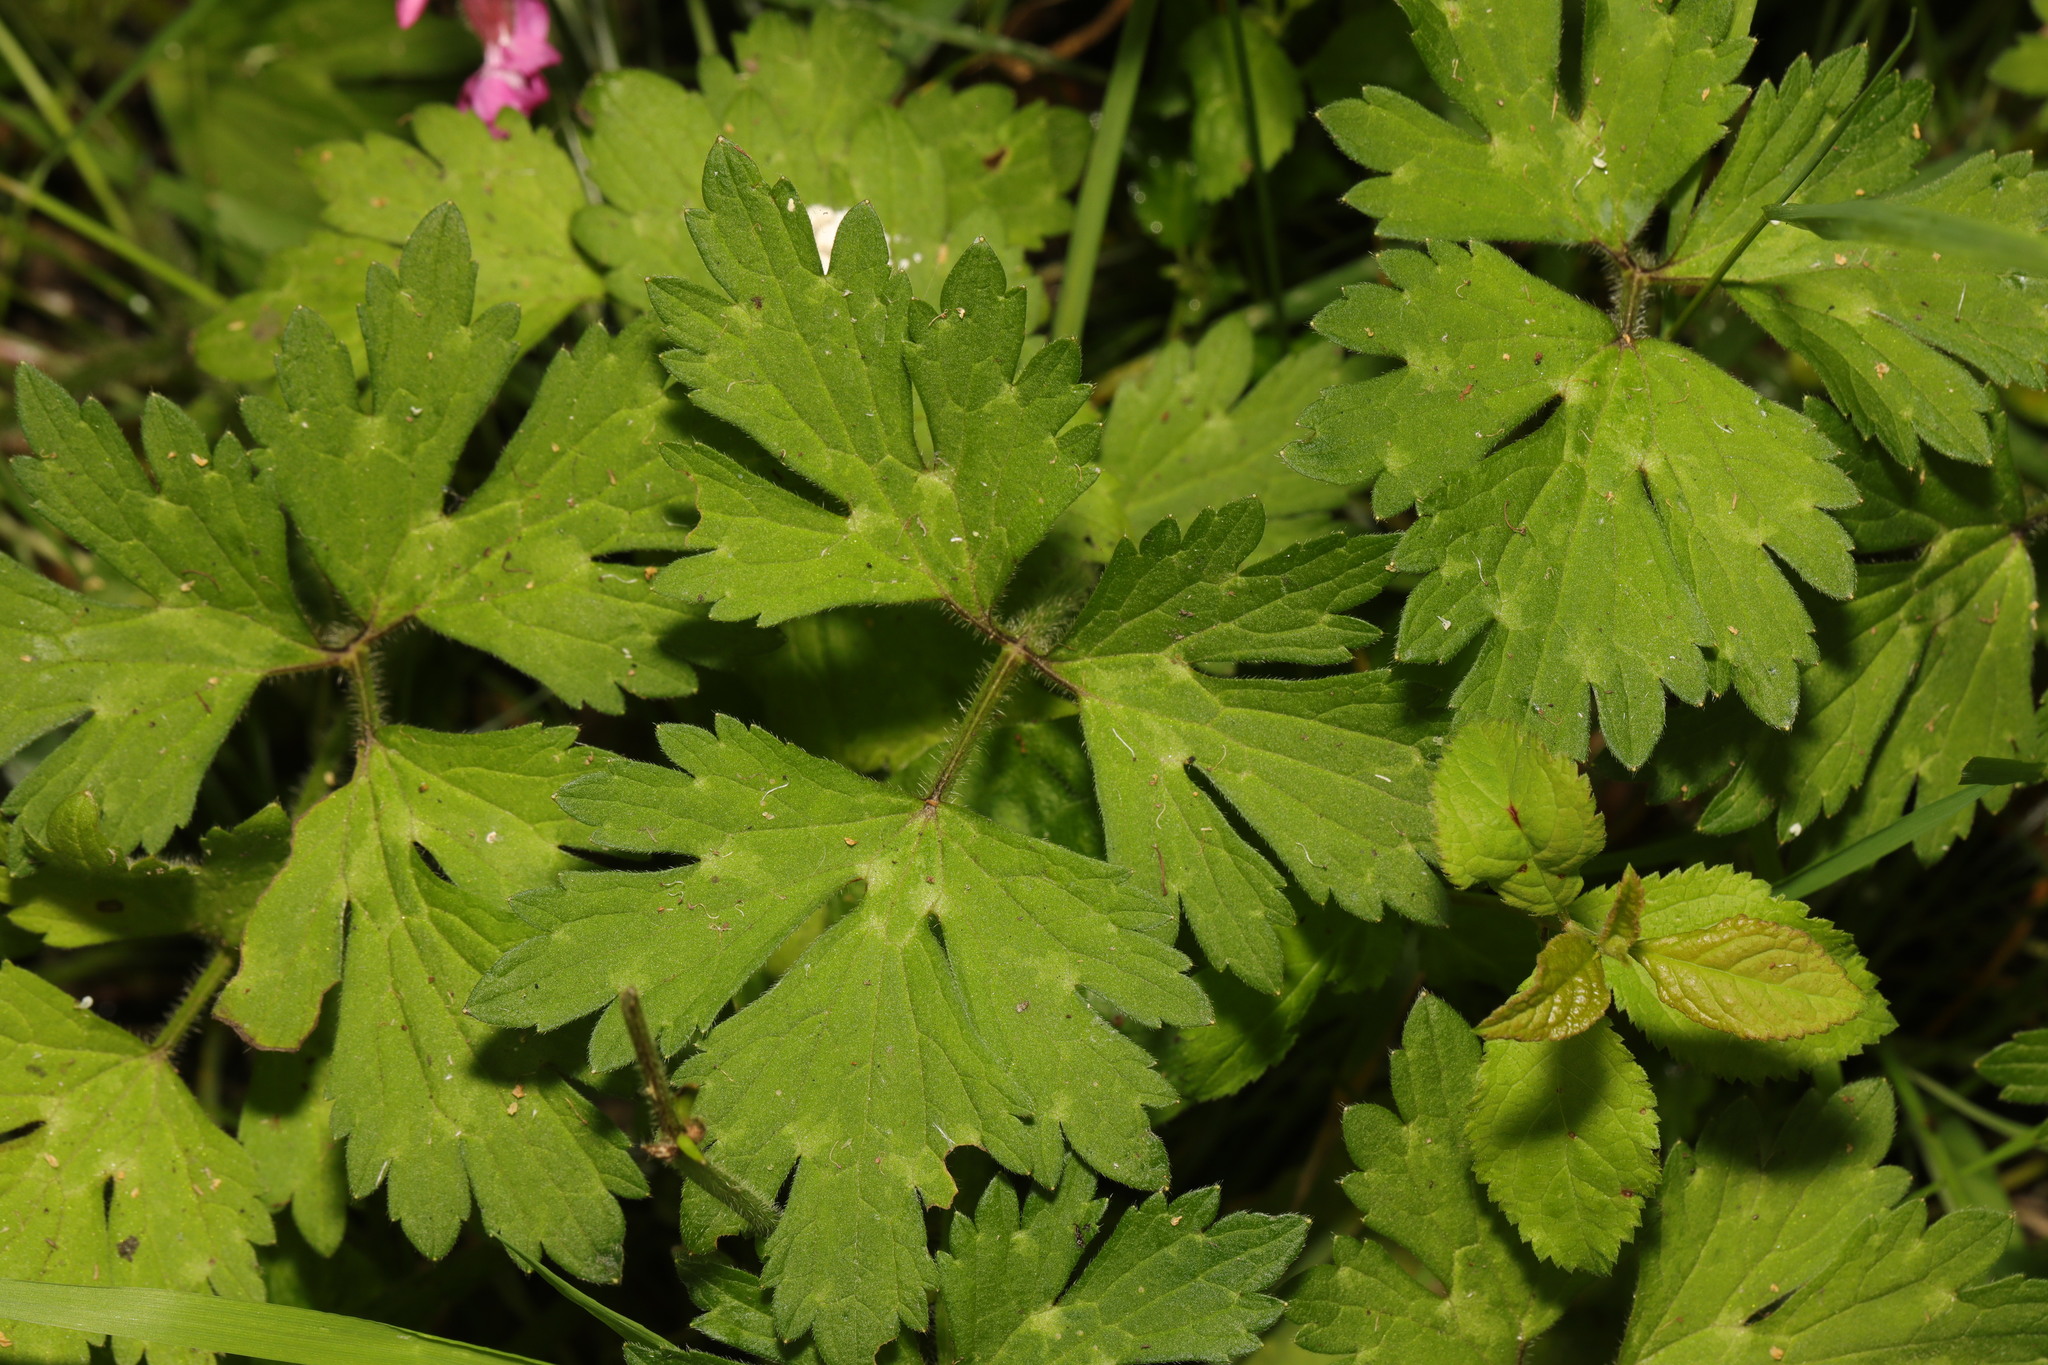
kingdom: Plantae
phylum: Tracheophyta
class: Magnoliopsida
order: Ranunculales
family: Ranunculaceae
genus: Ranunculus
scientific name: Ranunculus repens
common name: Creeping buttercup
